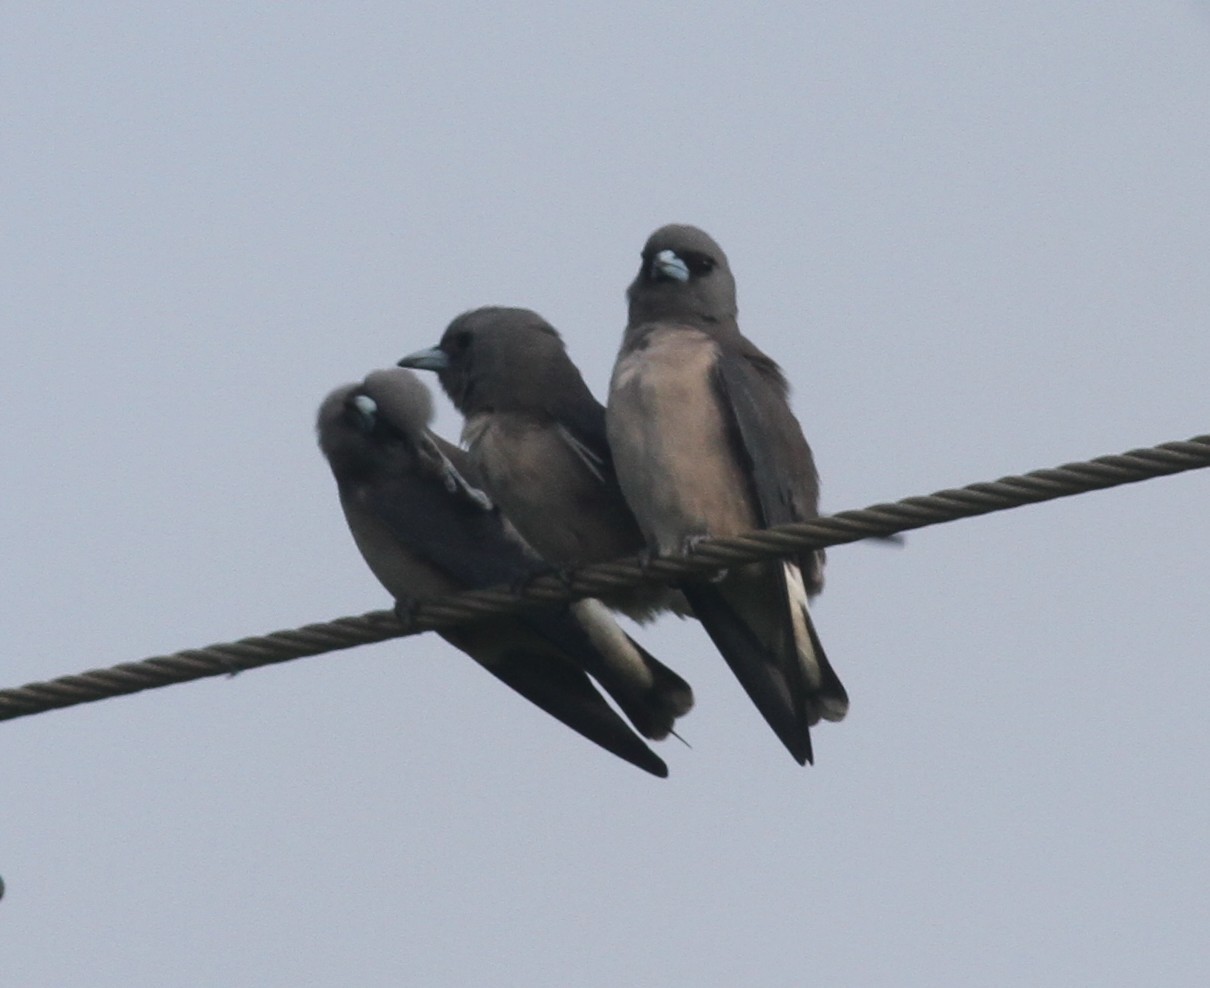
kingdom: Animalia
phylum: Chordata
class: Aves
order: Passeriformes
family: Artamidae
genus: Artamus
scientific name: Artamus fuscus
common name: Ashy woodswallow
